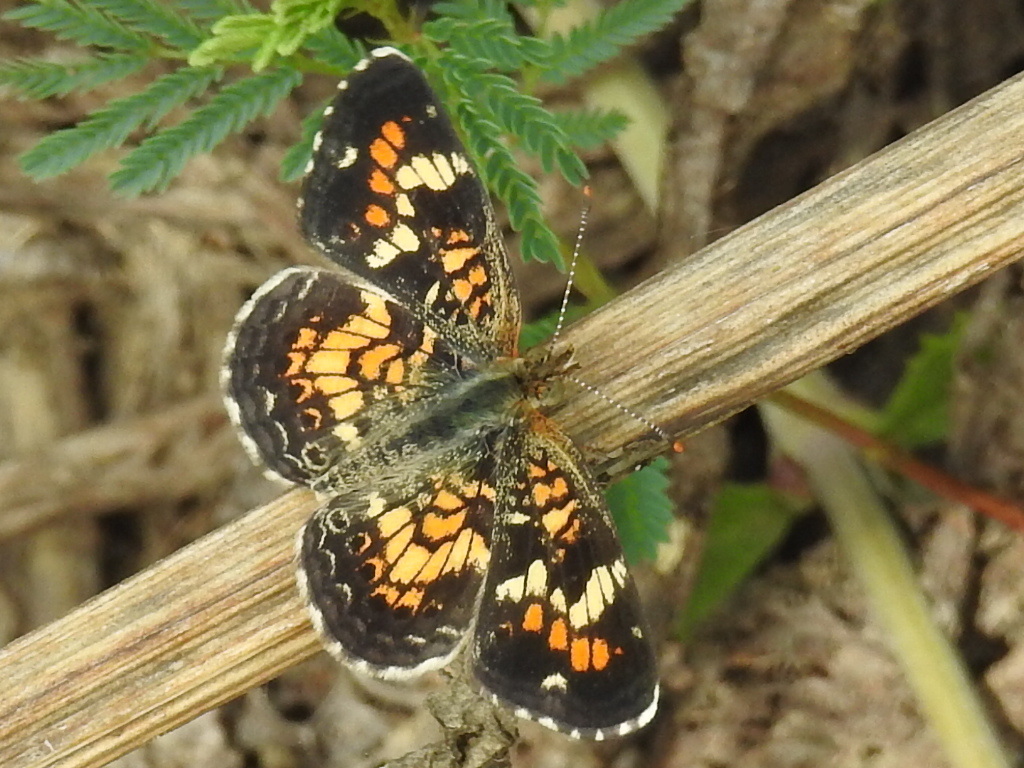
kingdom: Animalia
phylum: Arthropoda
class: Insecta
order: Lepidoptera
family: Nymphalidae
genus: Phyciodes
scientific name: Phyciodes phaon
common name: Phaon crescent
